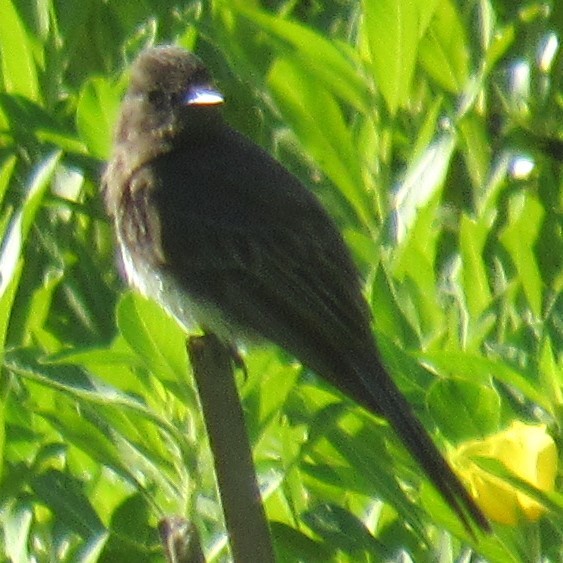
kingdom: Animalia
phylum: Chordata
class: Aves
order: Passeriformes
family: Tyrannidae
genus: Sayornis
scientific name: Sayornis nigricans
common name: Black phoebe
